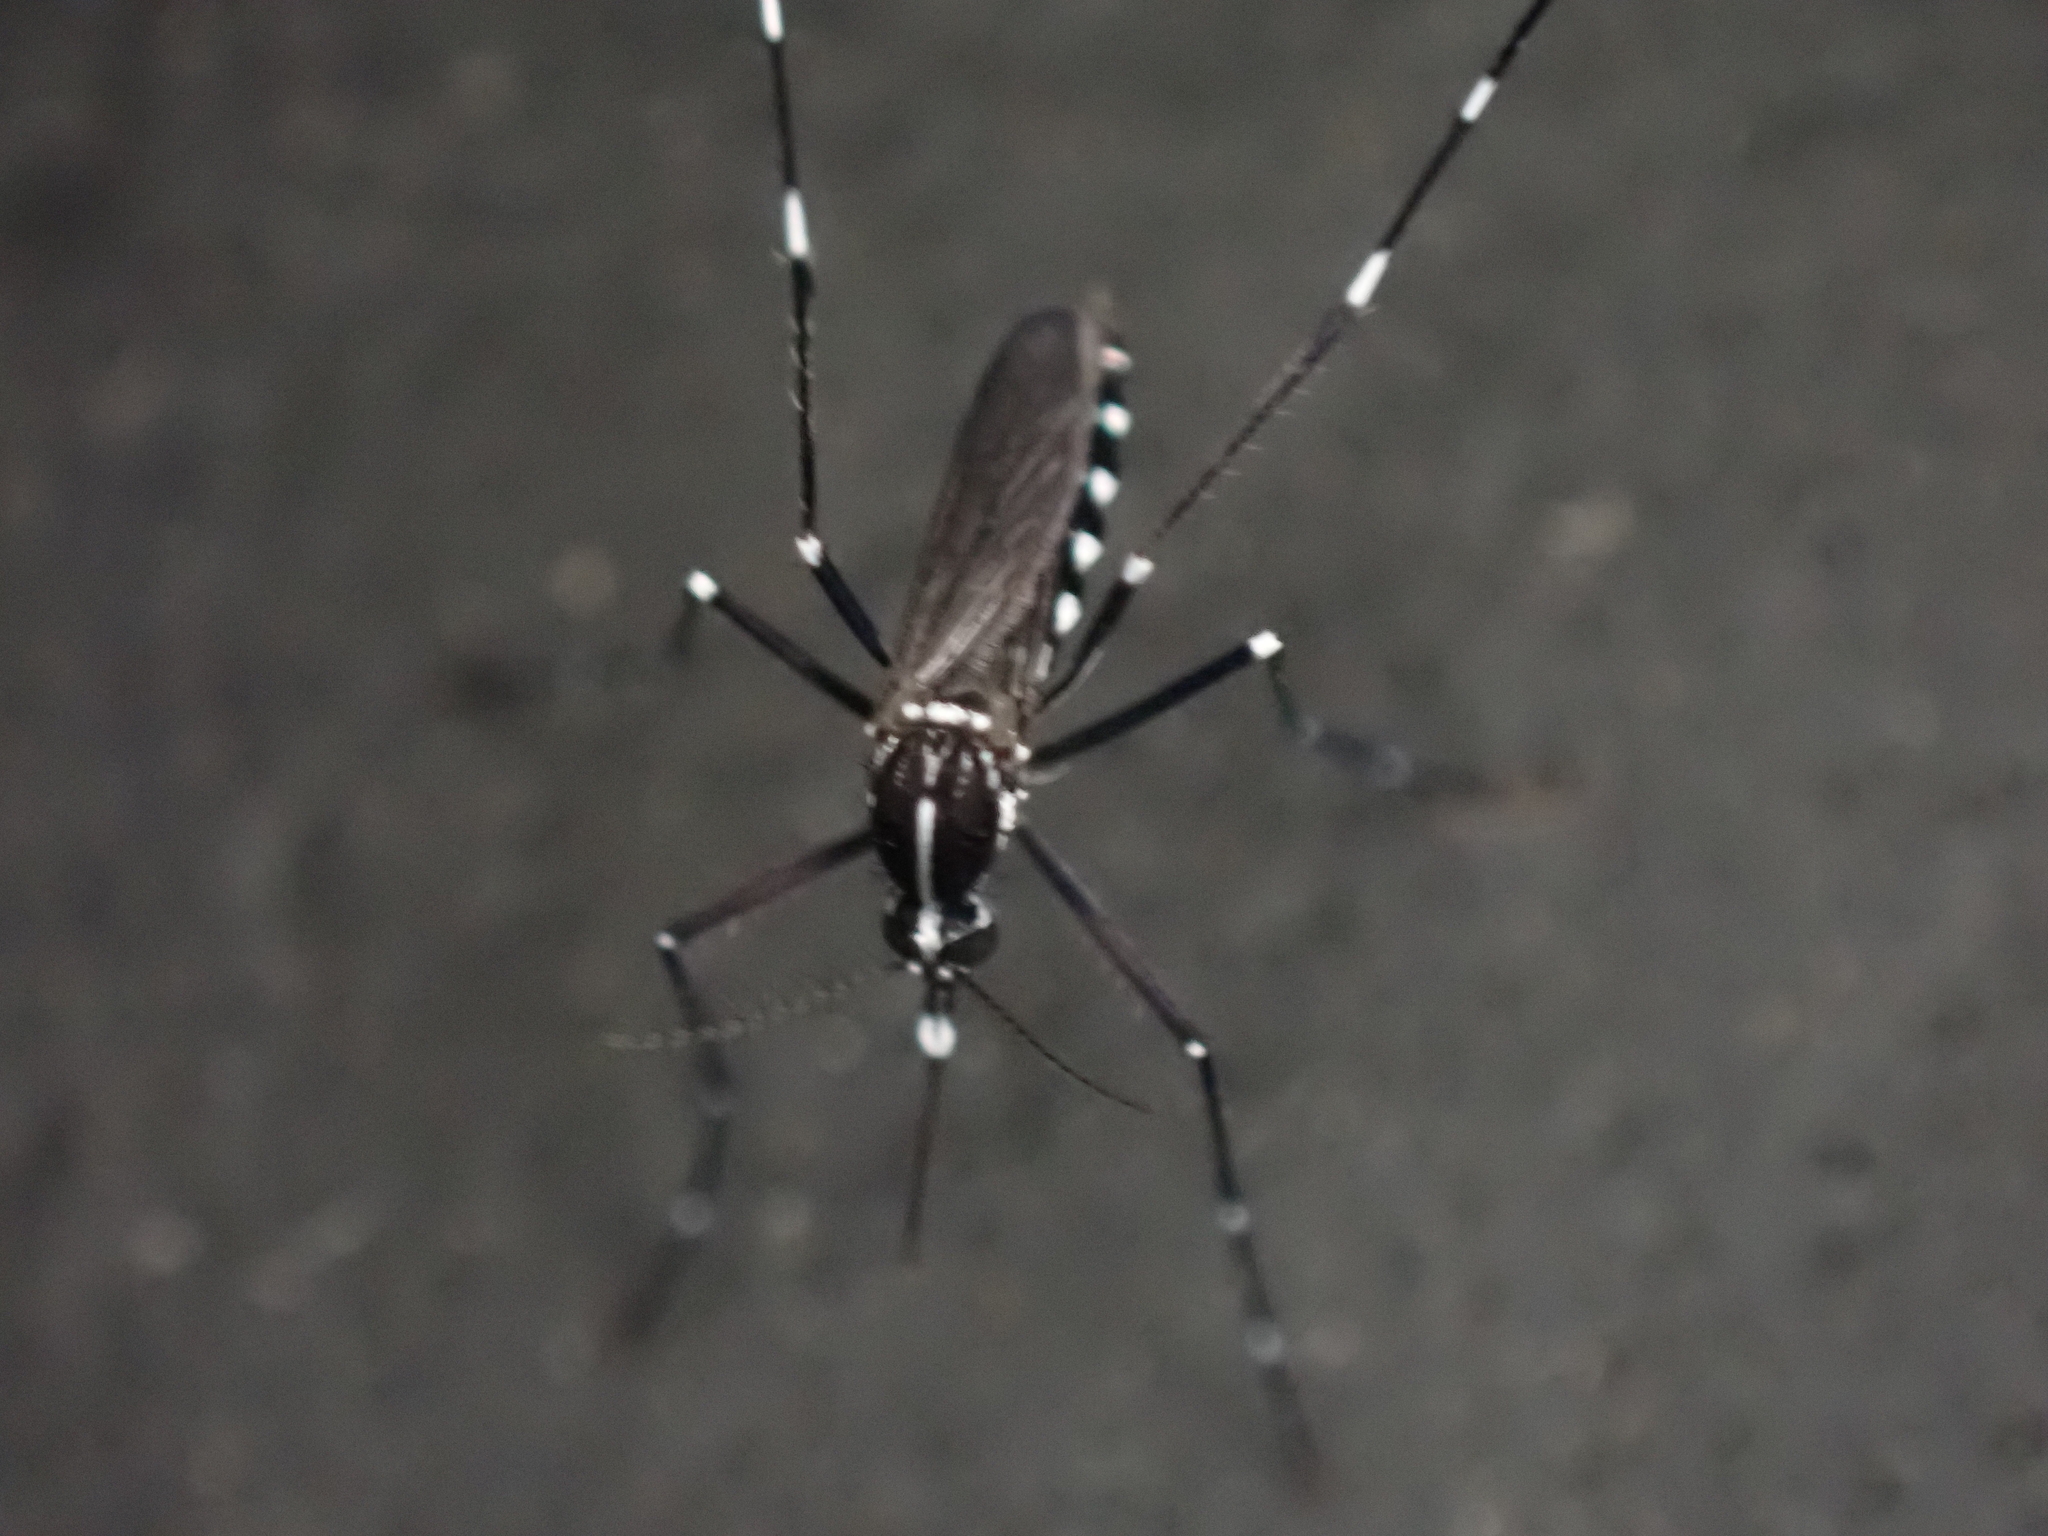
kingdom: Animalia
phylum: Arthropoda
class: Insecta
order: Diptera
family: Culicidae
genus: Aedes
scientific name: Aedes albopictus
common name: Tiger mosquito
